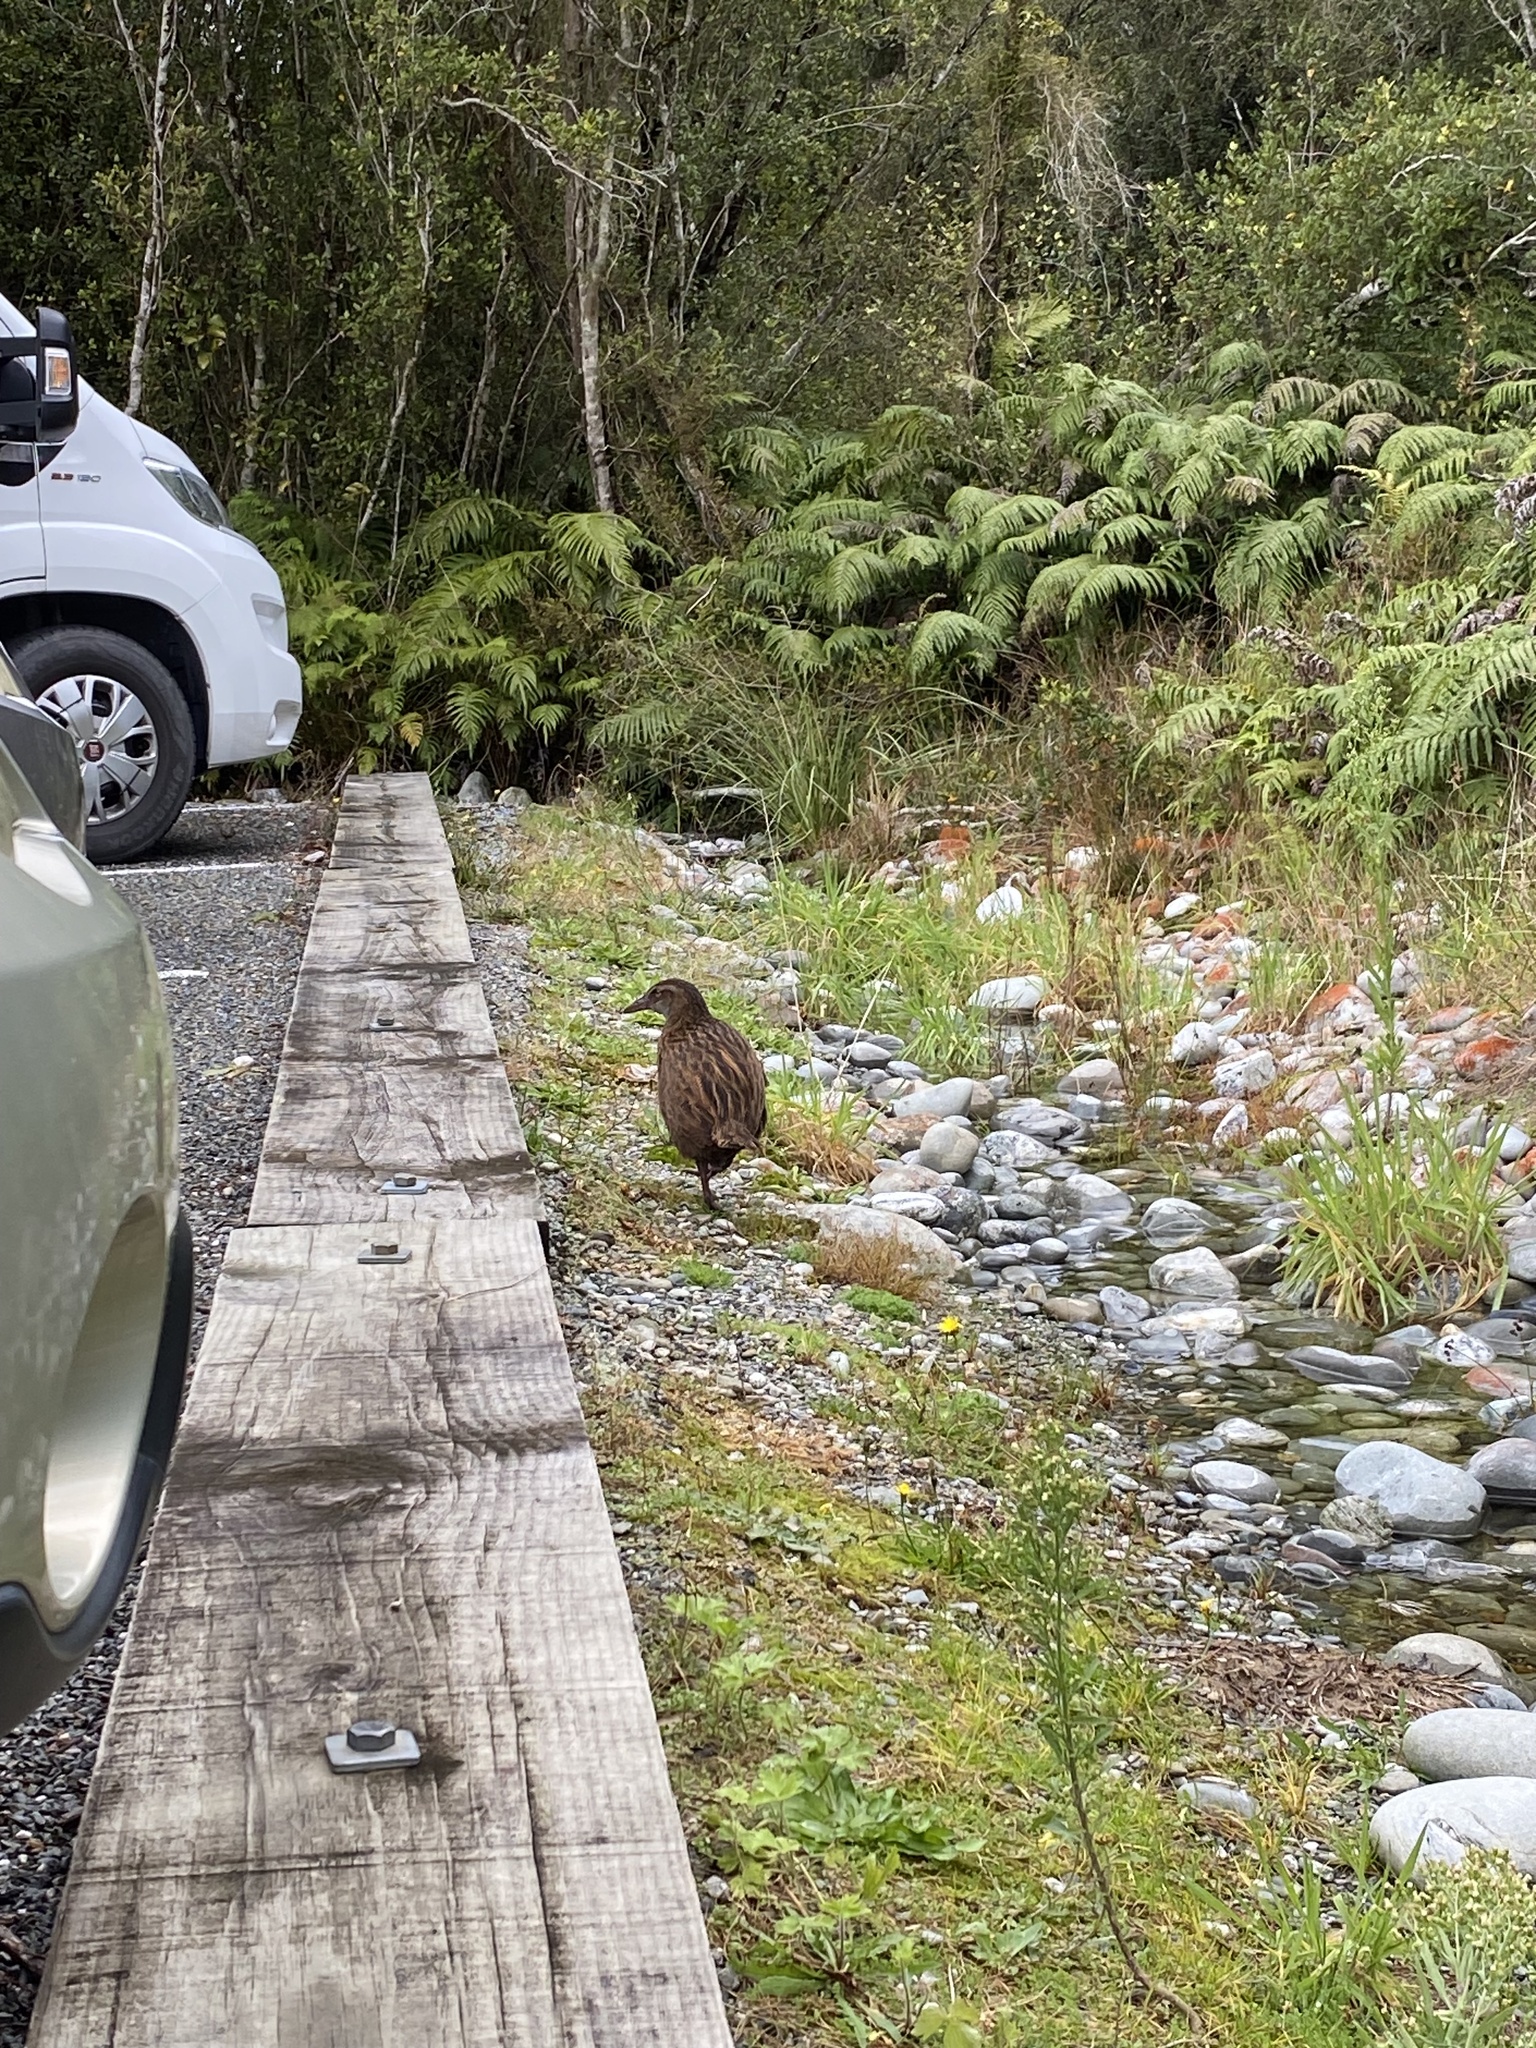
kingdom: Animalia
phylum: Chordata
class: Aves
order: Gruiformes
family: Rallidae
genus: Gallirallus
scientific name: Gallirallus australis
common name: Weka
